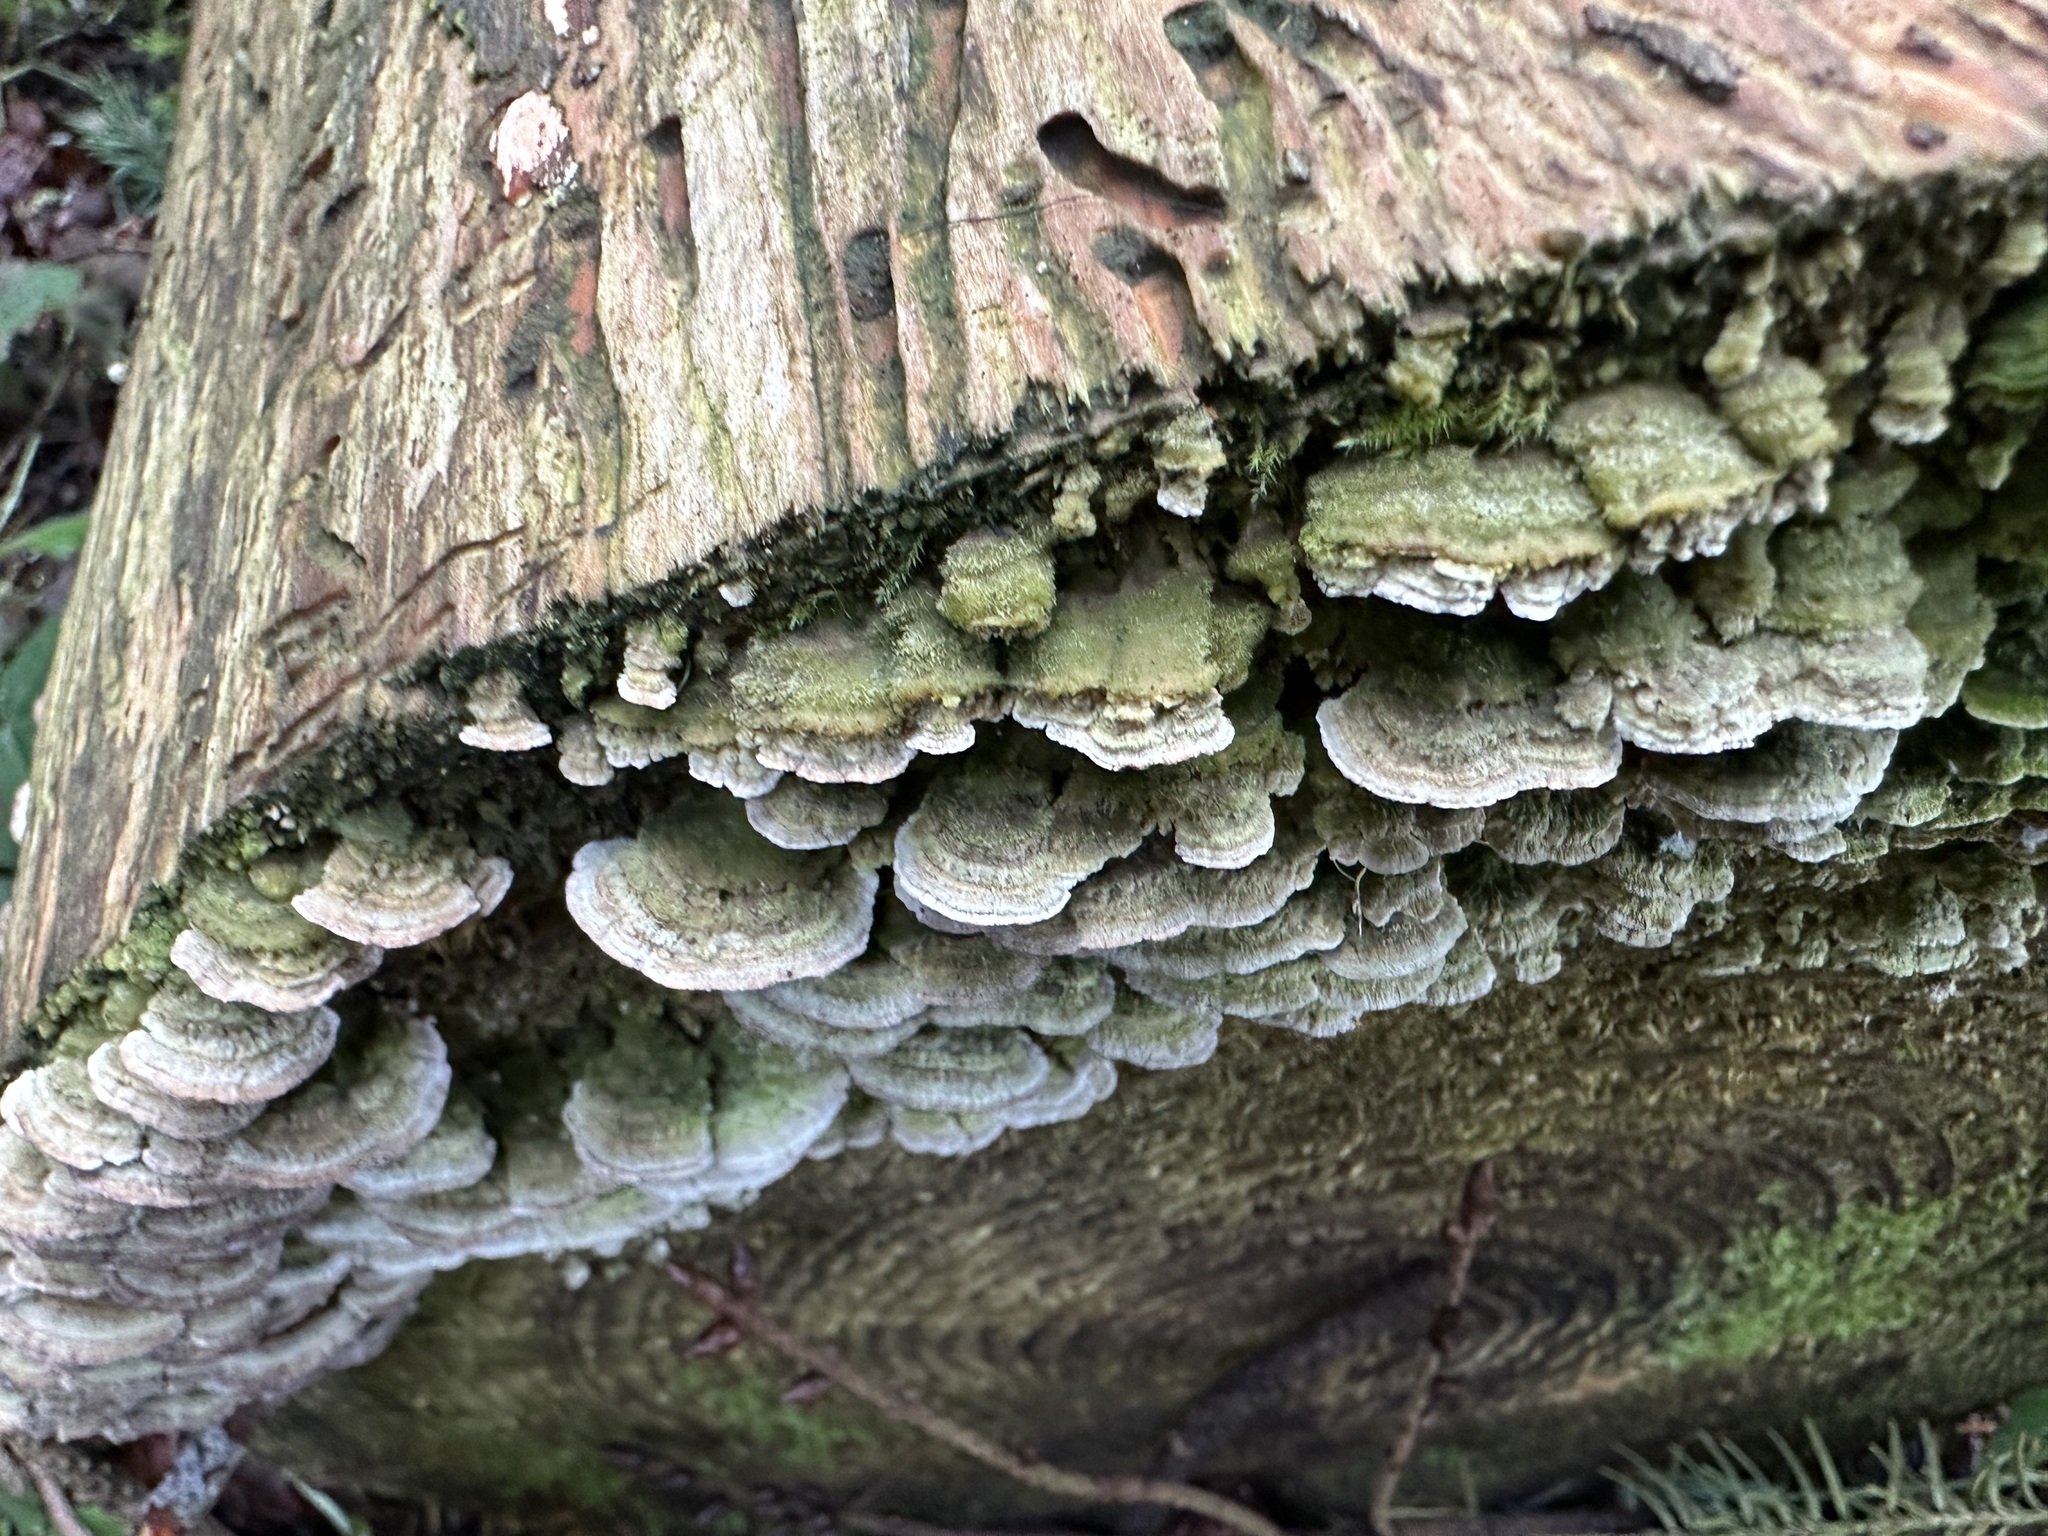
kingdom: Fungi
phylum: Basidiomycota
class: Agaricomycetes
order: Hymenochaetales
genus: Trichaptum
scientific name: Trichaptum abietinum
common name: Purplepore bracket
